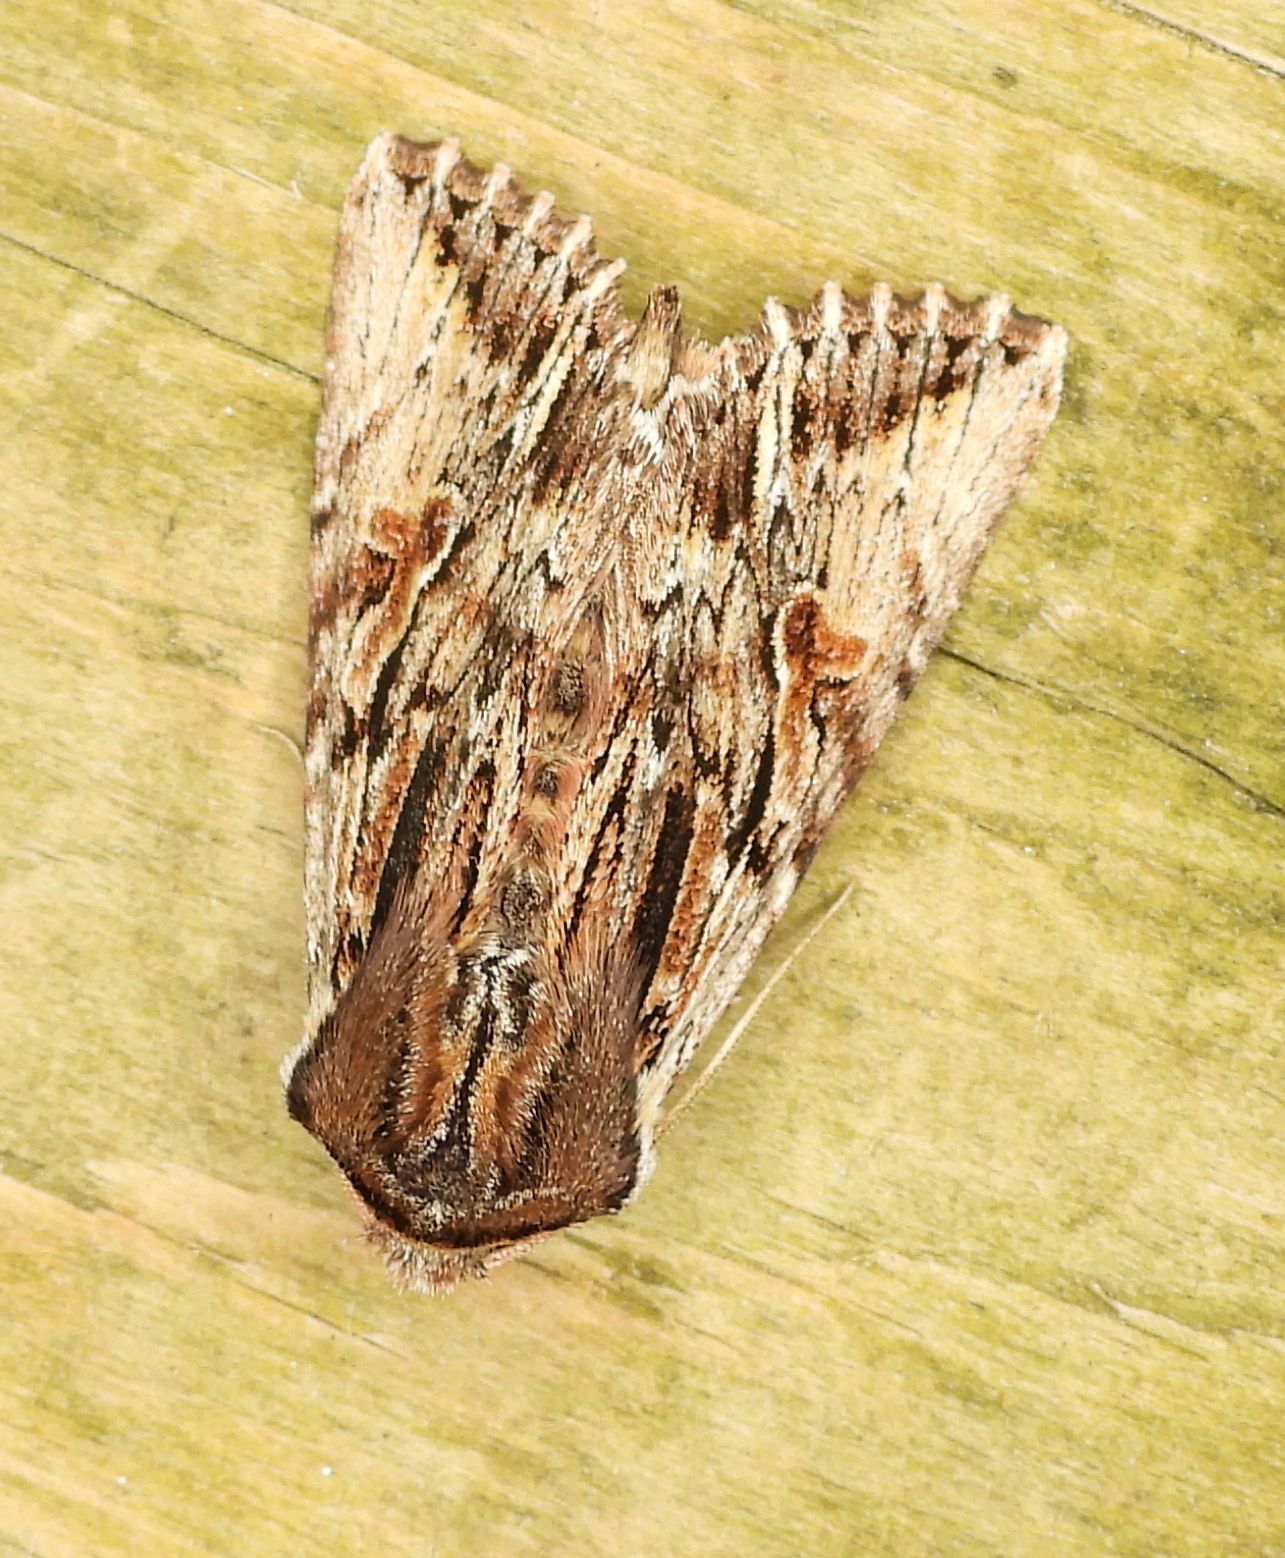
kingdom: Animalia
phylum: Arthropoda
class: Insecta
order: Lepidoptera
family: Noctuidae
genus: Achatia
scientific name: Achatia evicta
